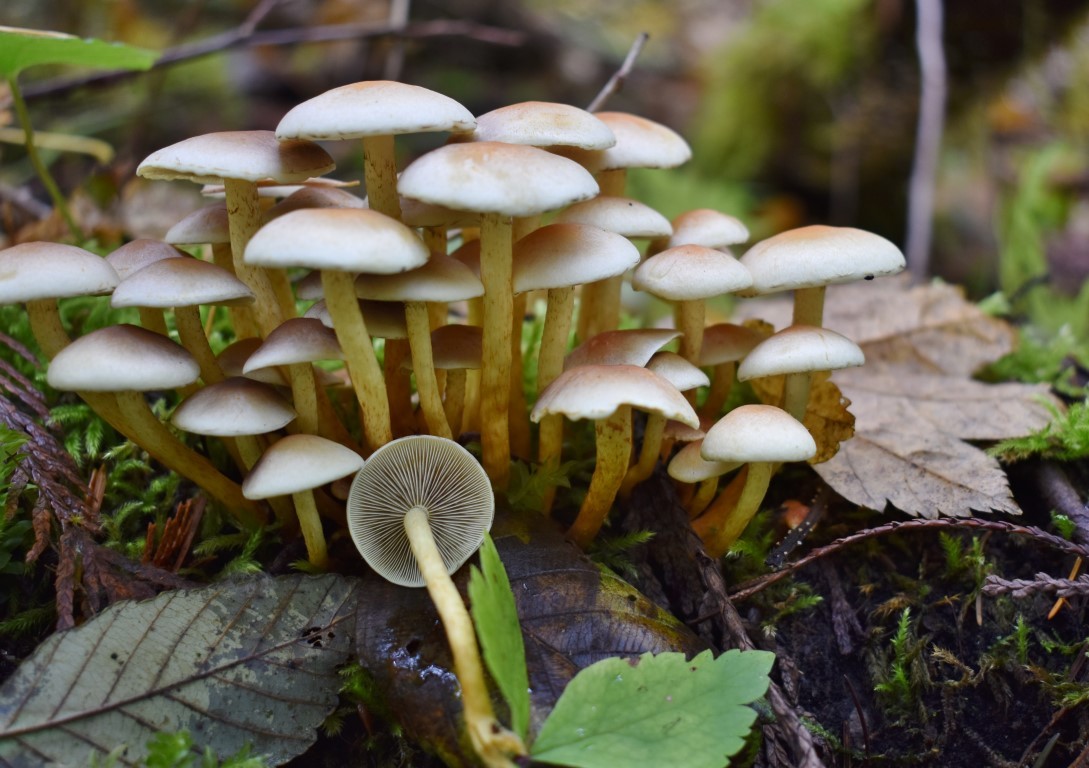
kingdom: Fungi
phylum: Basidiomycota
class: Agaricomycetes
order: Agaricales
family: Strophariaceae
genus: Hypholoma
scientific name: Hypholoma fasciculare
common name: Sulphur tuft
